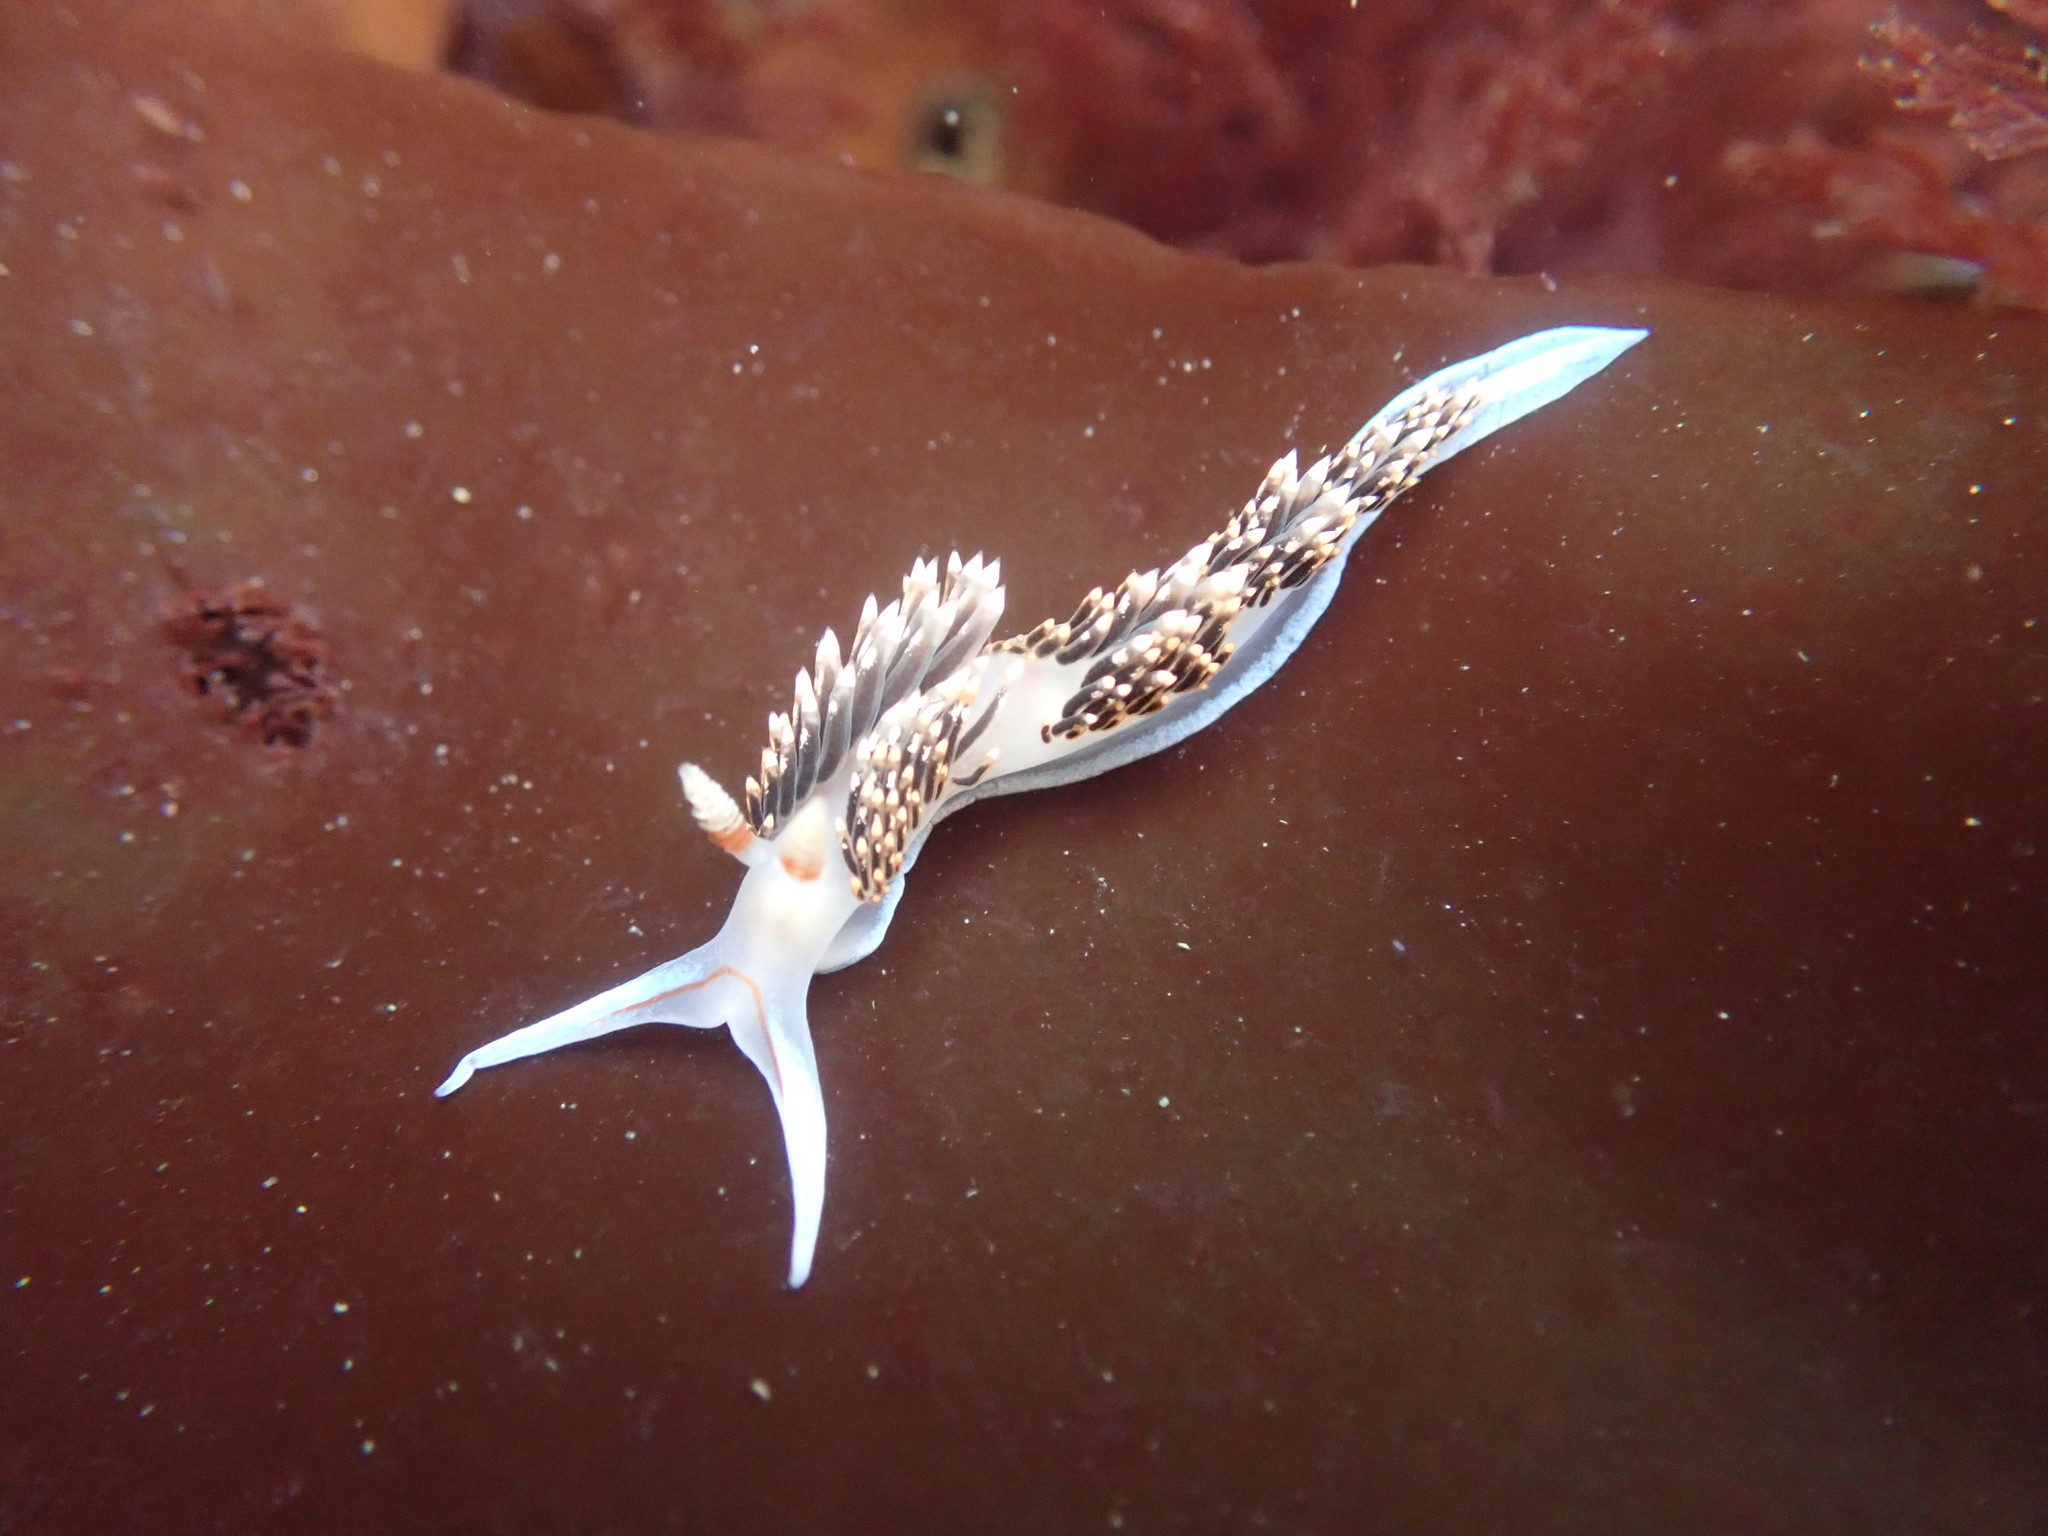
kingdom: Animalia
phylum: Mollusca
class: Gastropoda
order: Nudibranchia
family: Facelinidae
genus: Phidiana
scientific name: Phidiana hiltoni
